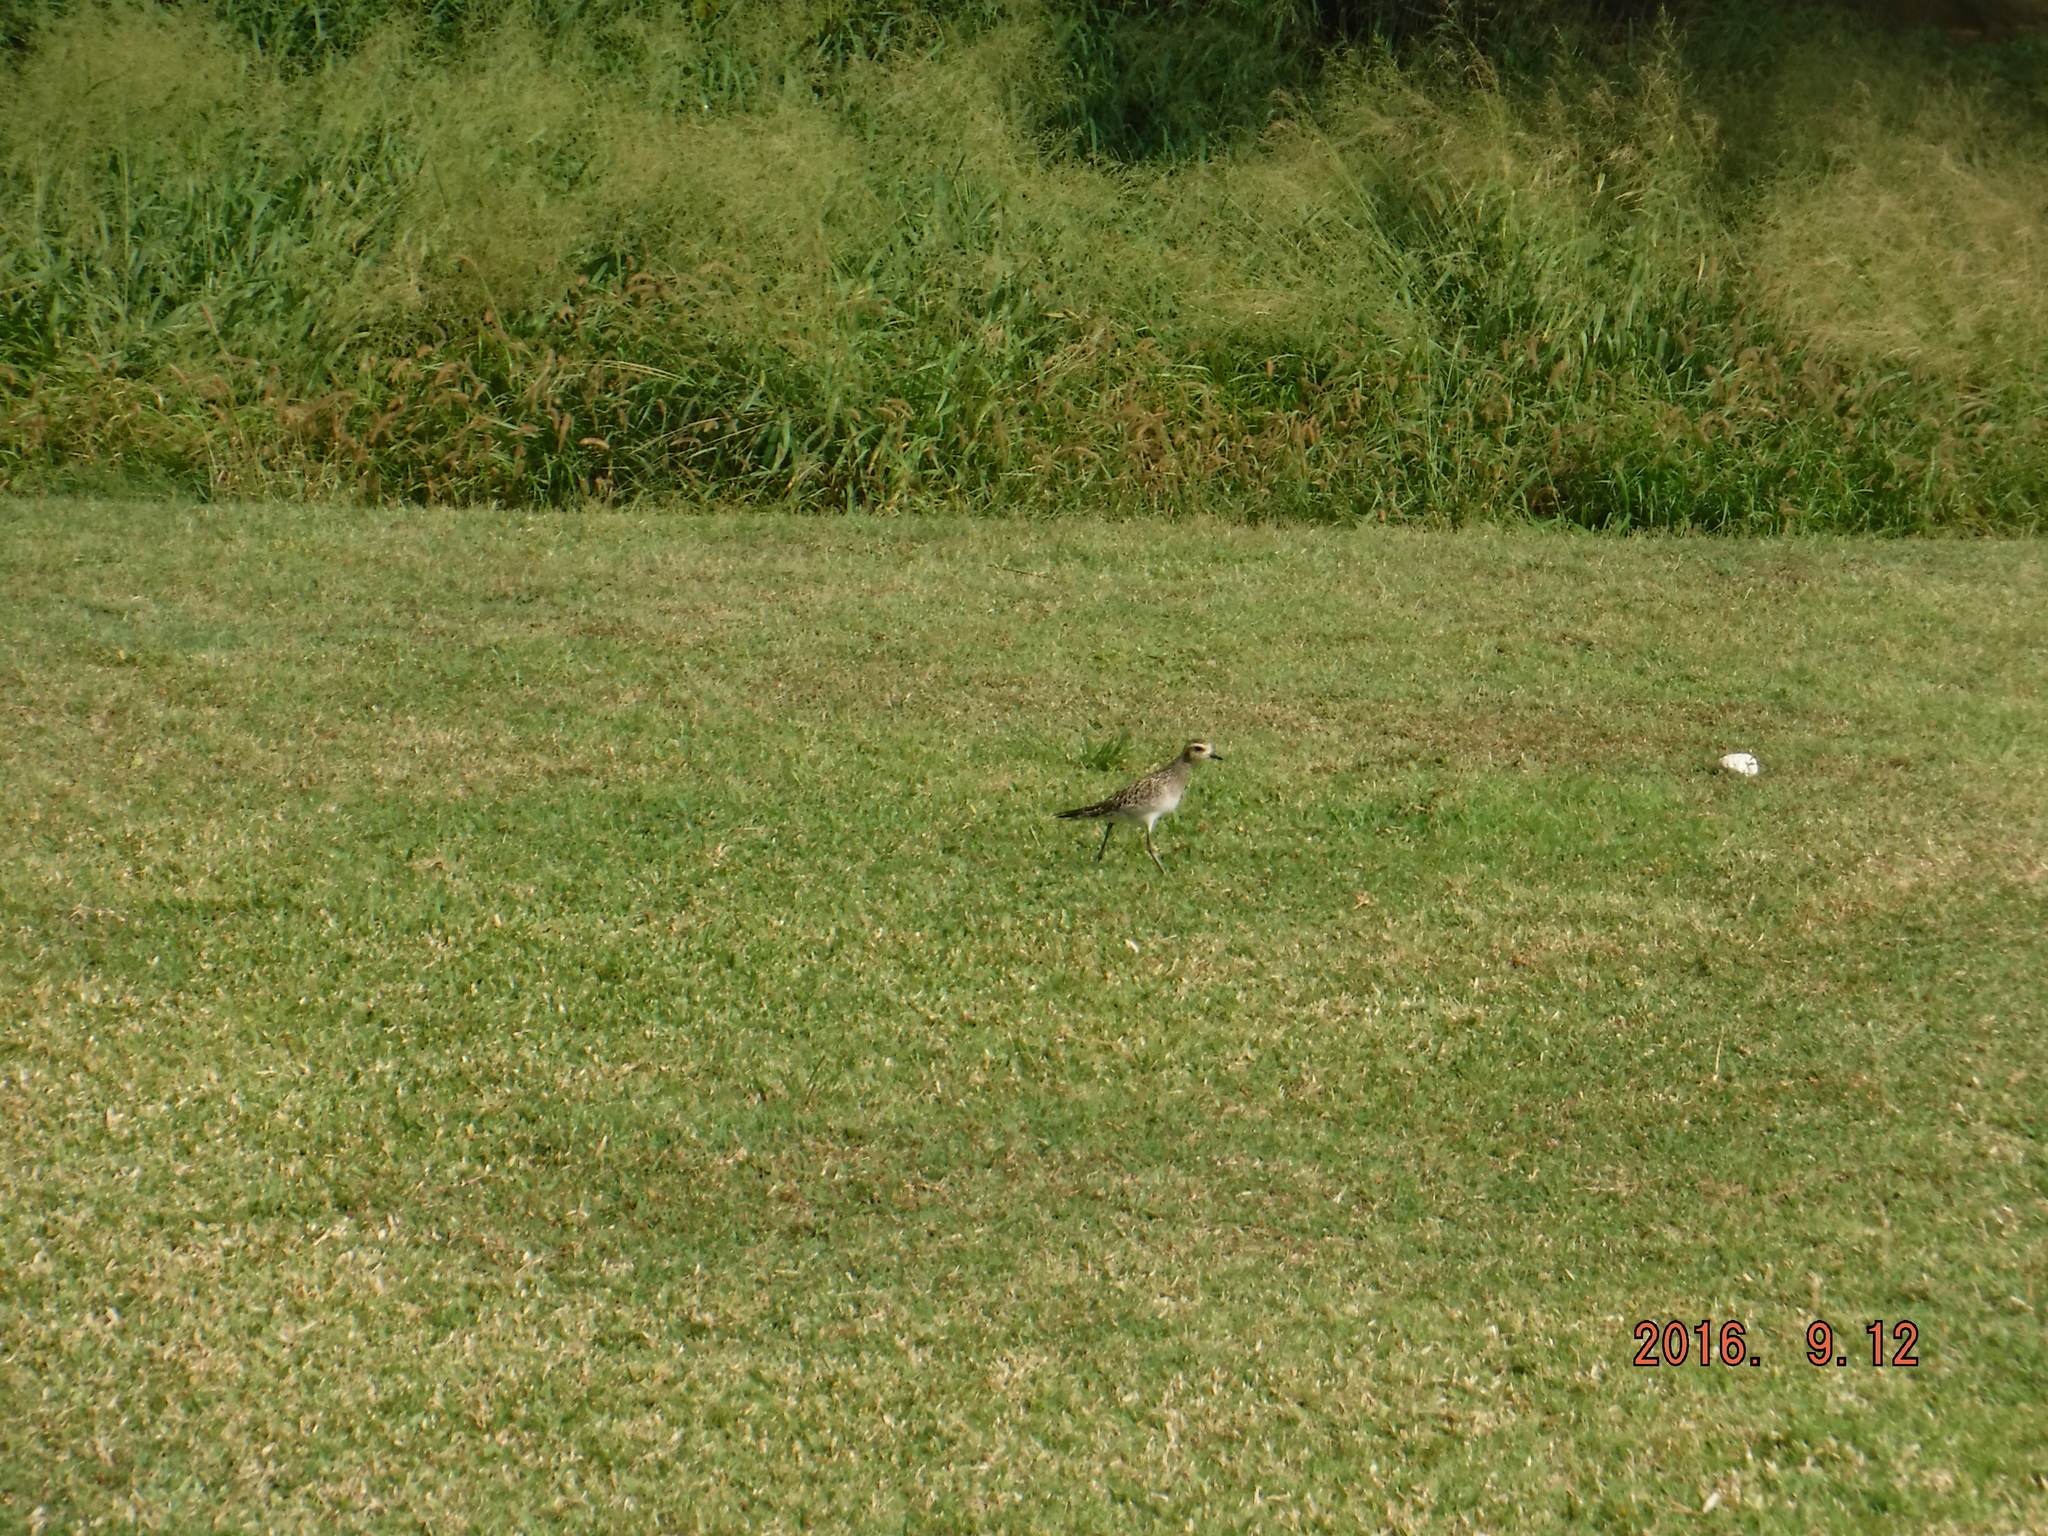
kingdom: Animalia
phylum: Chordata
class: Aves
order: Charadriiformes
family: Charadriidae
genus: Pluvialis
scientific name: Pluvialis fulva
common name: Pacific golden plover
